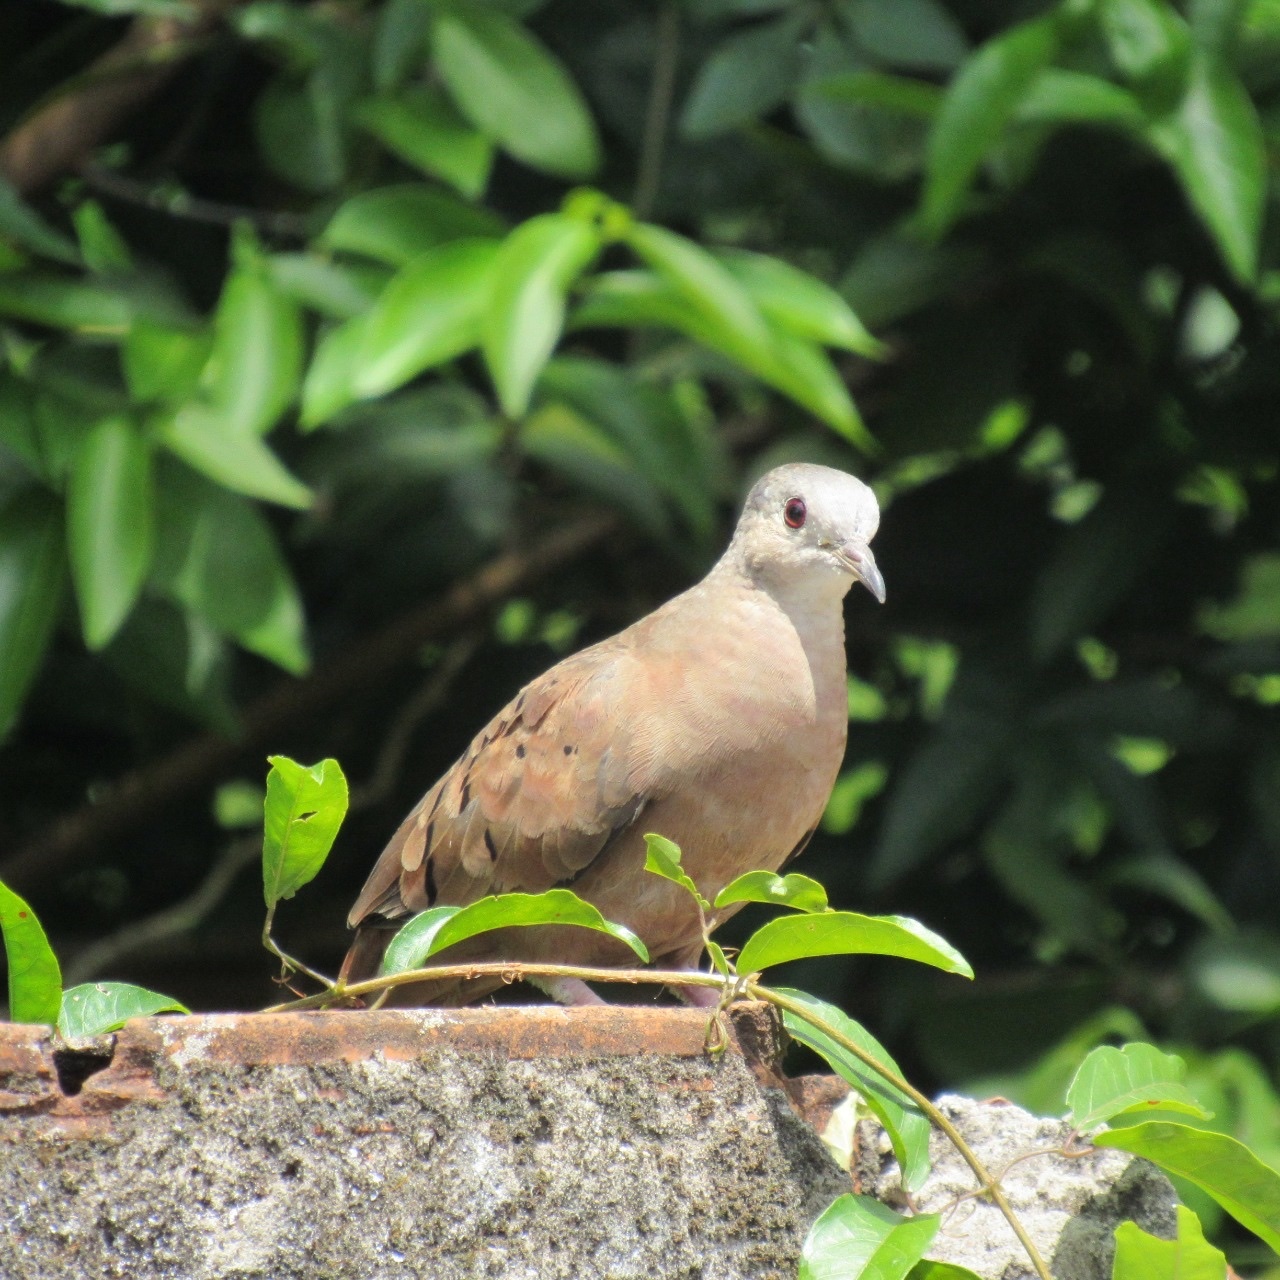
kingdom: Animalia
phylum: Chordata
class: Aves
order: Columbiformes
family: Columbidae
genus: Columbina
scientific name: Columbina talpacoti
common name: Ruddy ground dove
